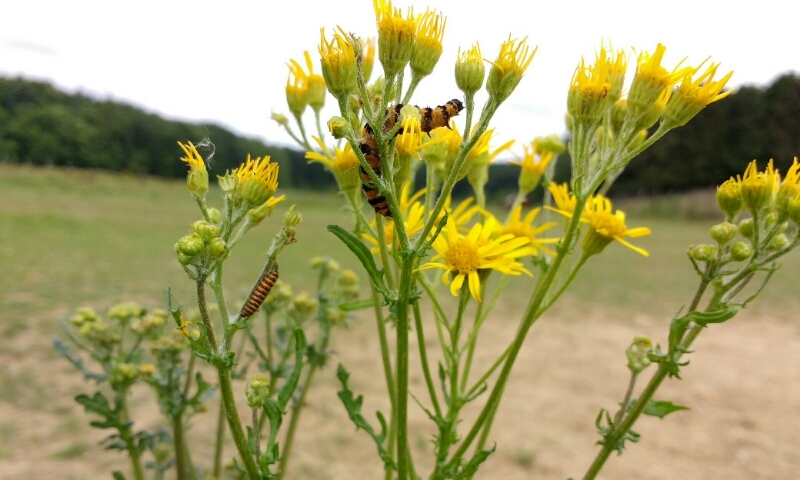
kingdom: Animalia
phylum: Arthropoda
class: Insecta
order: Lepidoptera
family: Erebidae
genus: Tyria
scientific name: Tyria jacobaeae
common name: Cinnabar
